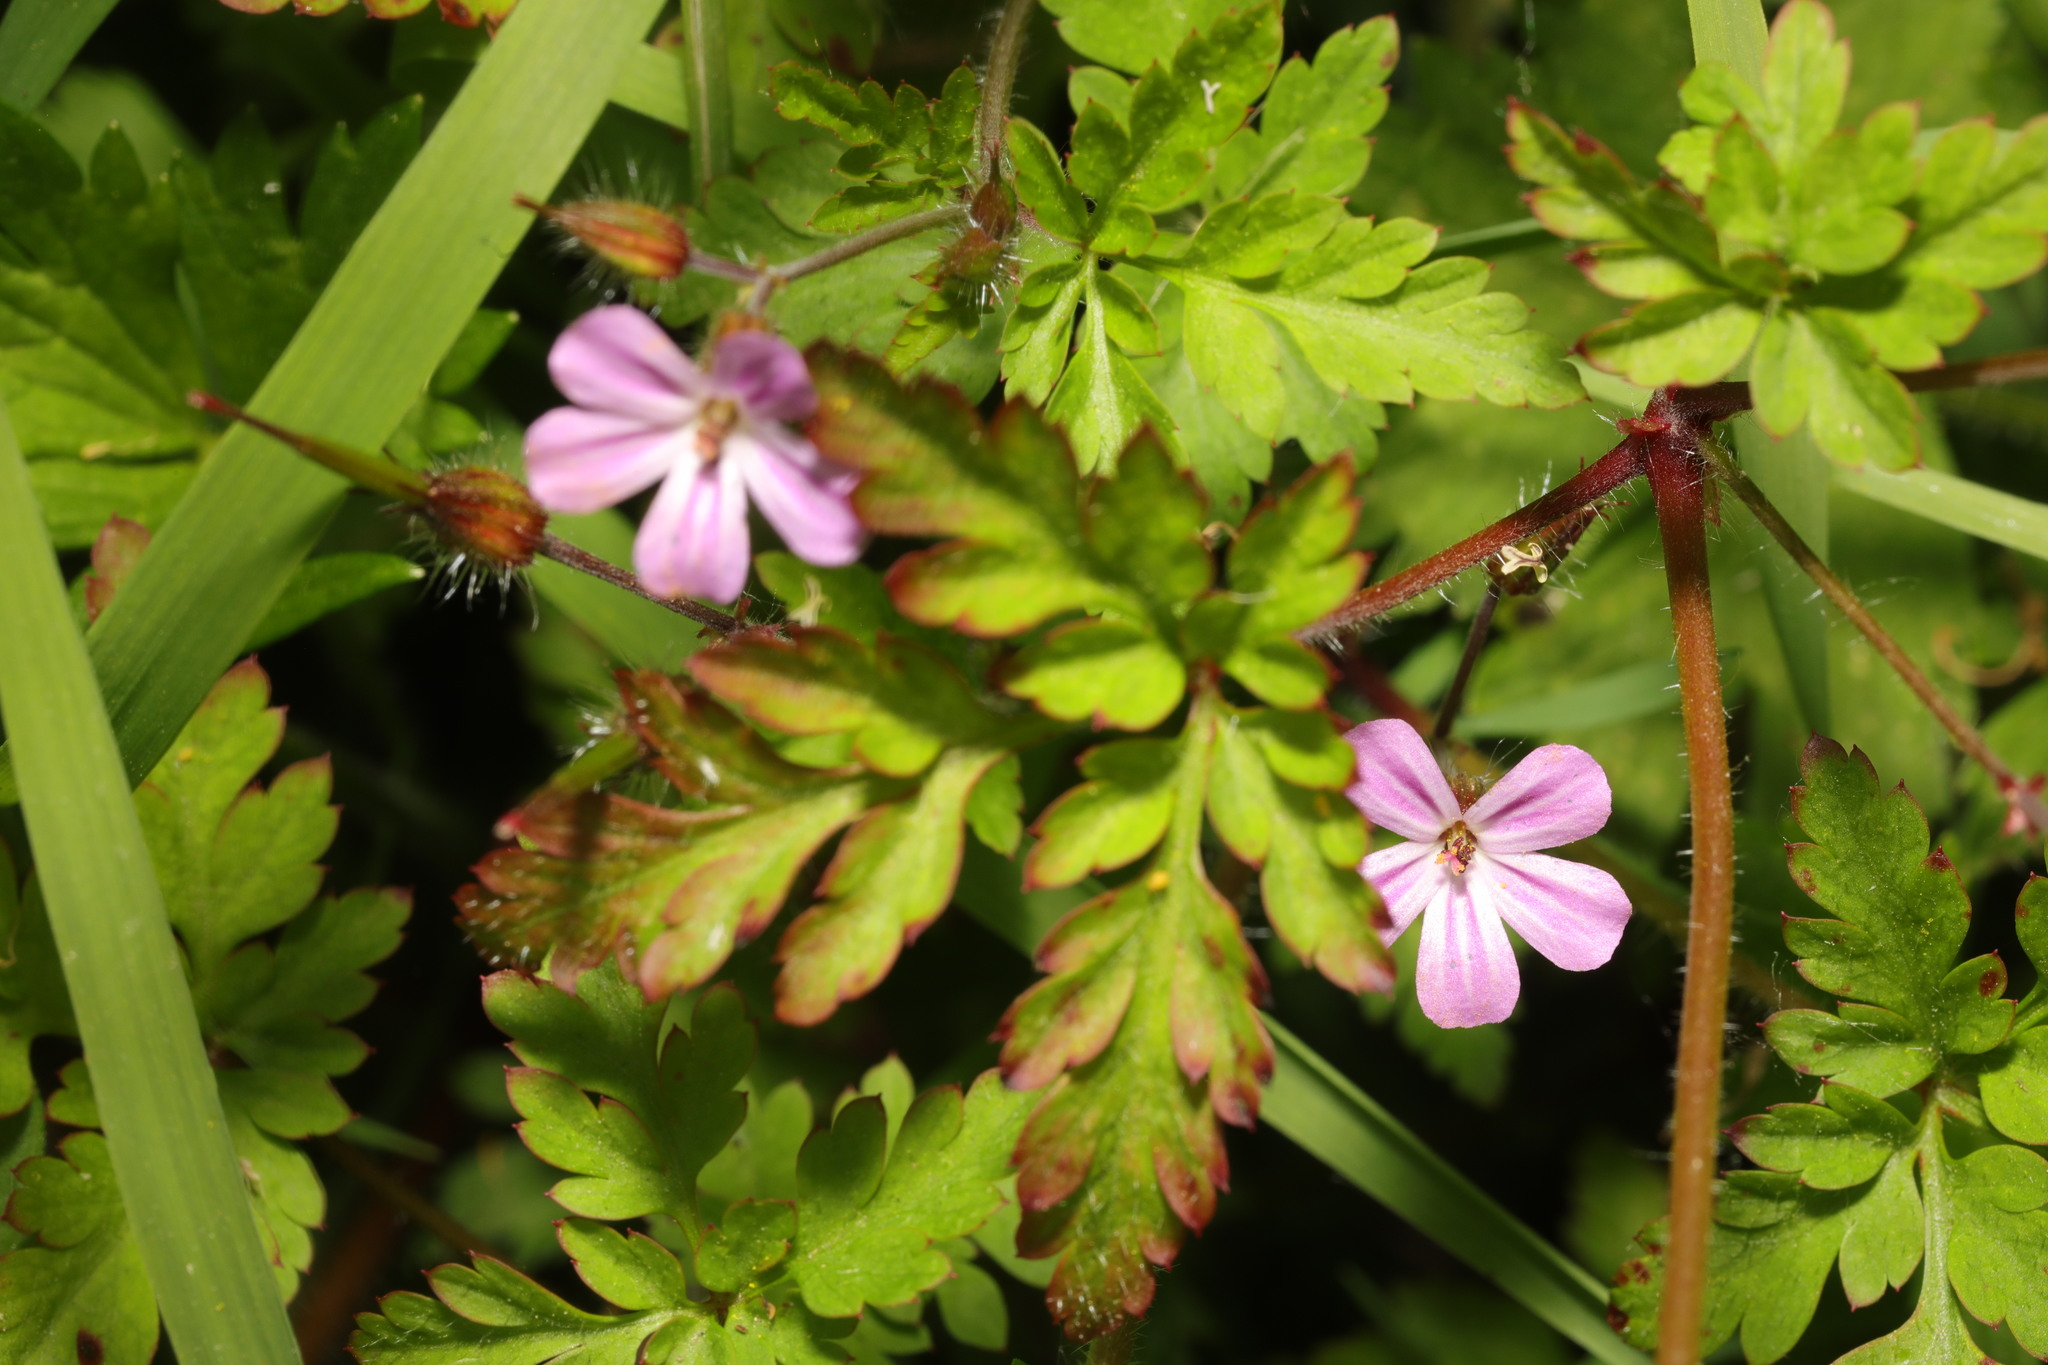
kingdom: Plantae
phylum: Tracheophyta
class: Magnoliopsida
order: Geraniales
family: Geraniaceae
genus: Geranium
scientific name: Geranium robertianum
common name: Herb-robert
